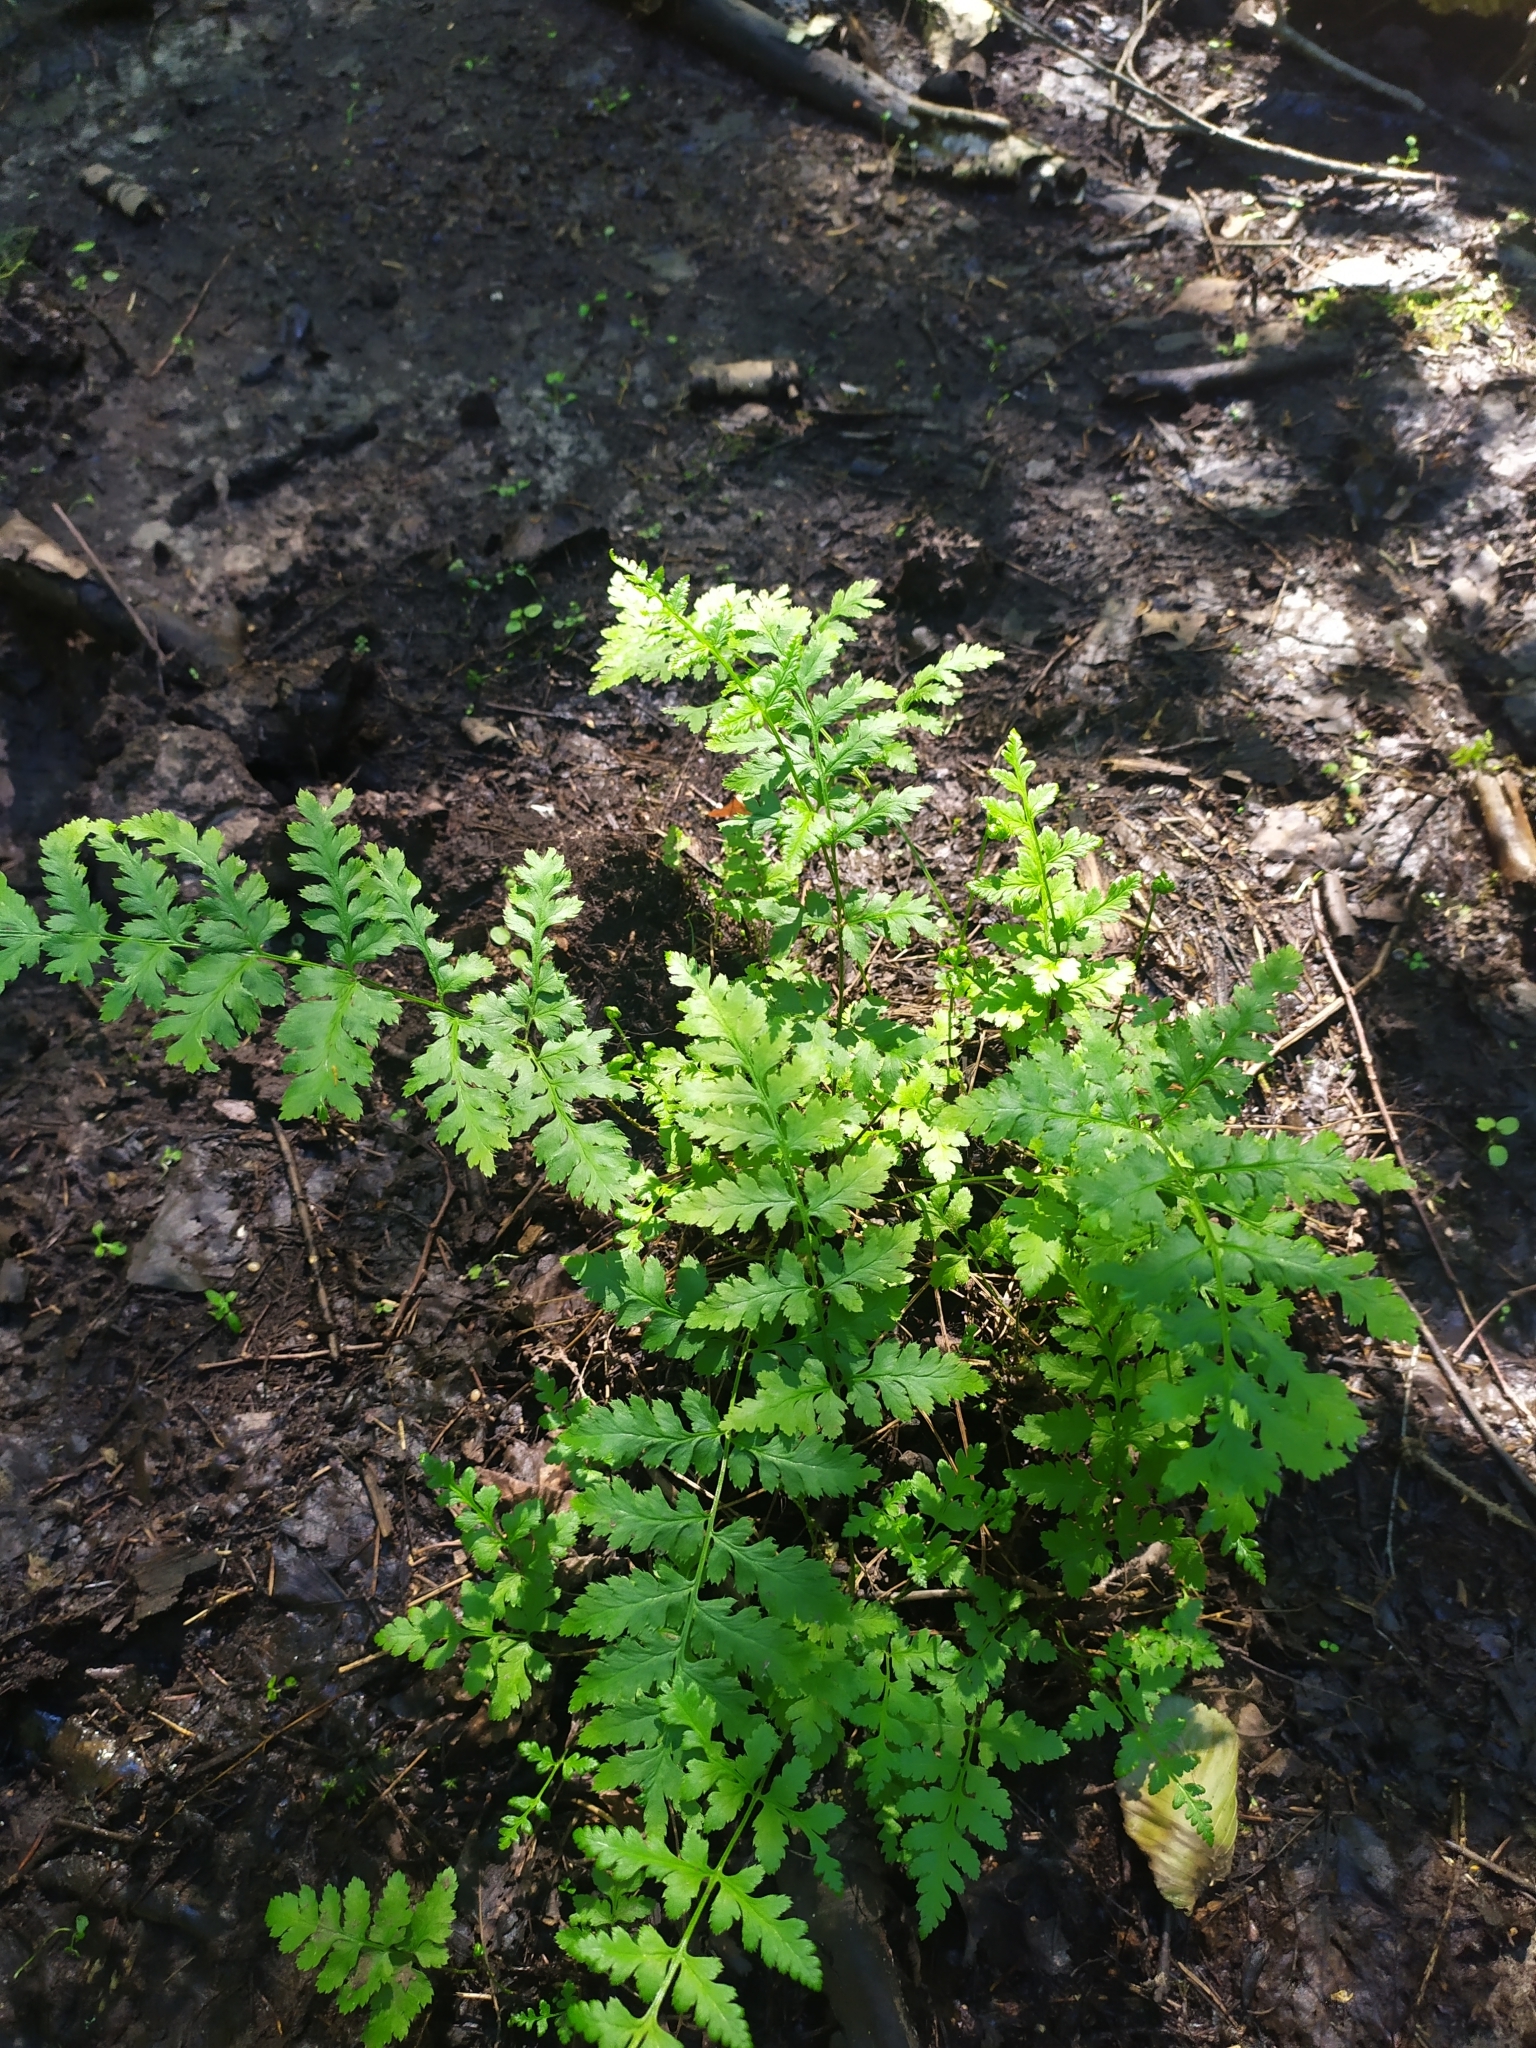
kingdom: Plantae
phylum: Tracheophyta
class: Polypodiopsida
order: Polypodiales
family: Dryopteridaceae
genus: Dryopteris
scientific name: Dryopteris carthusiana
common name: Narrow buckler-fern
